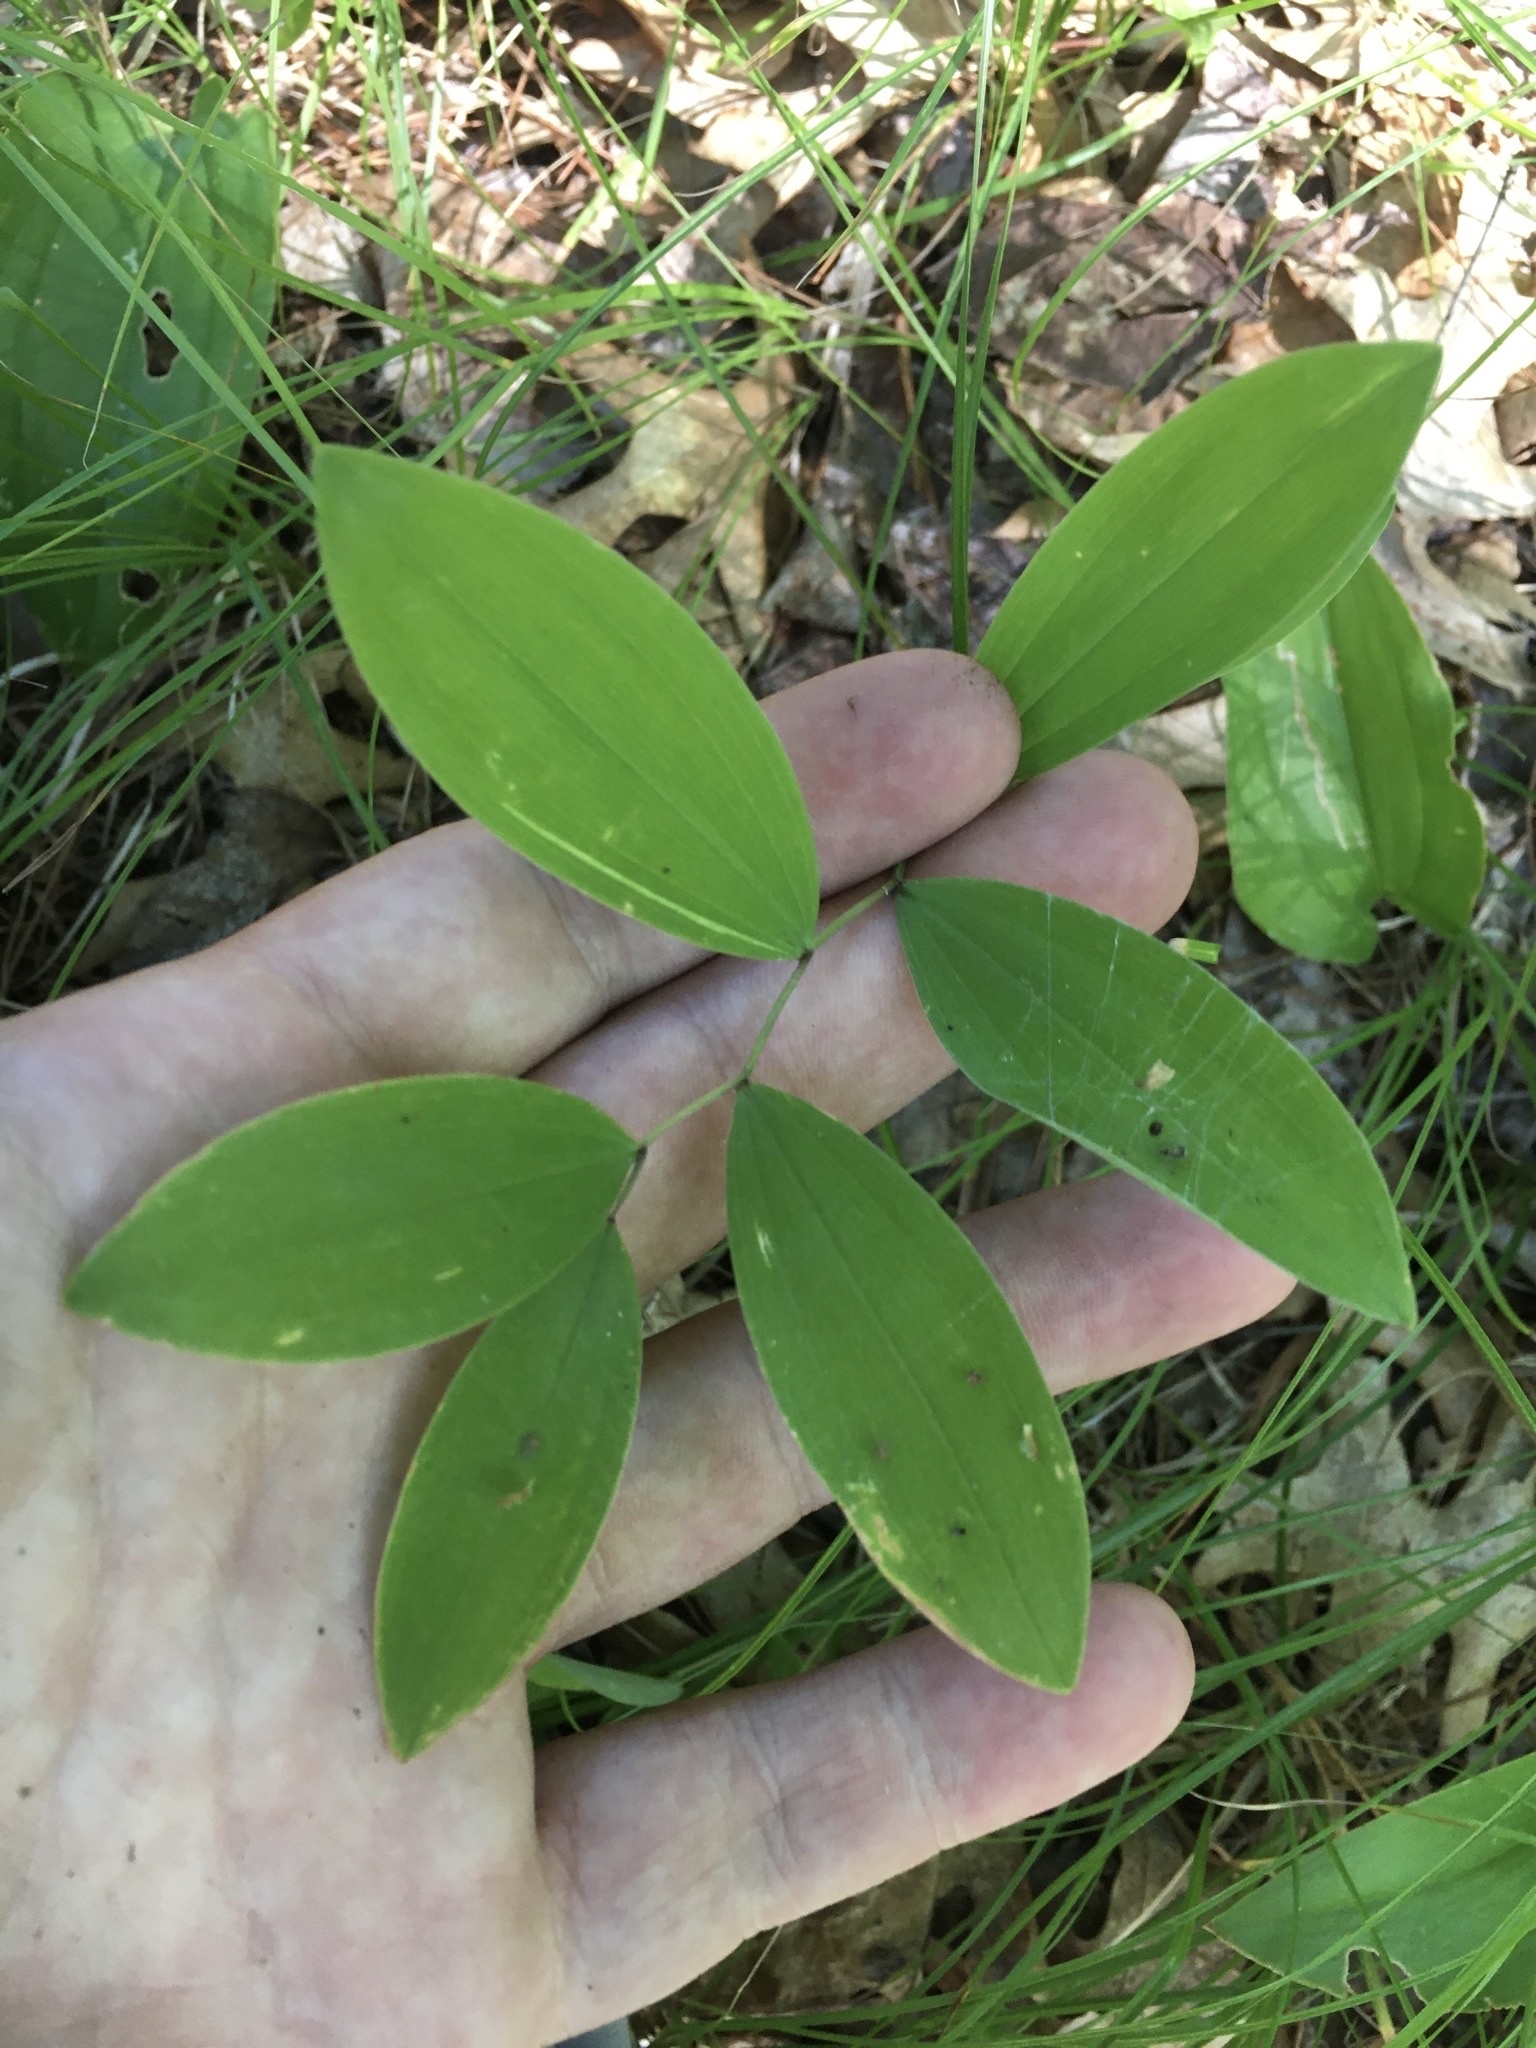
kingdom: Plantae
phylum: Tracheophyta
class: Liliopsida
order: Liliales
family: Colchicaceae
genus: Uvularia
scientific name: Uvularia sessilifolia
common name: Straw-lily
